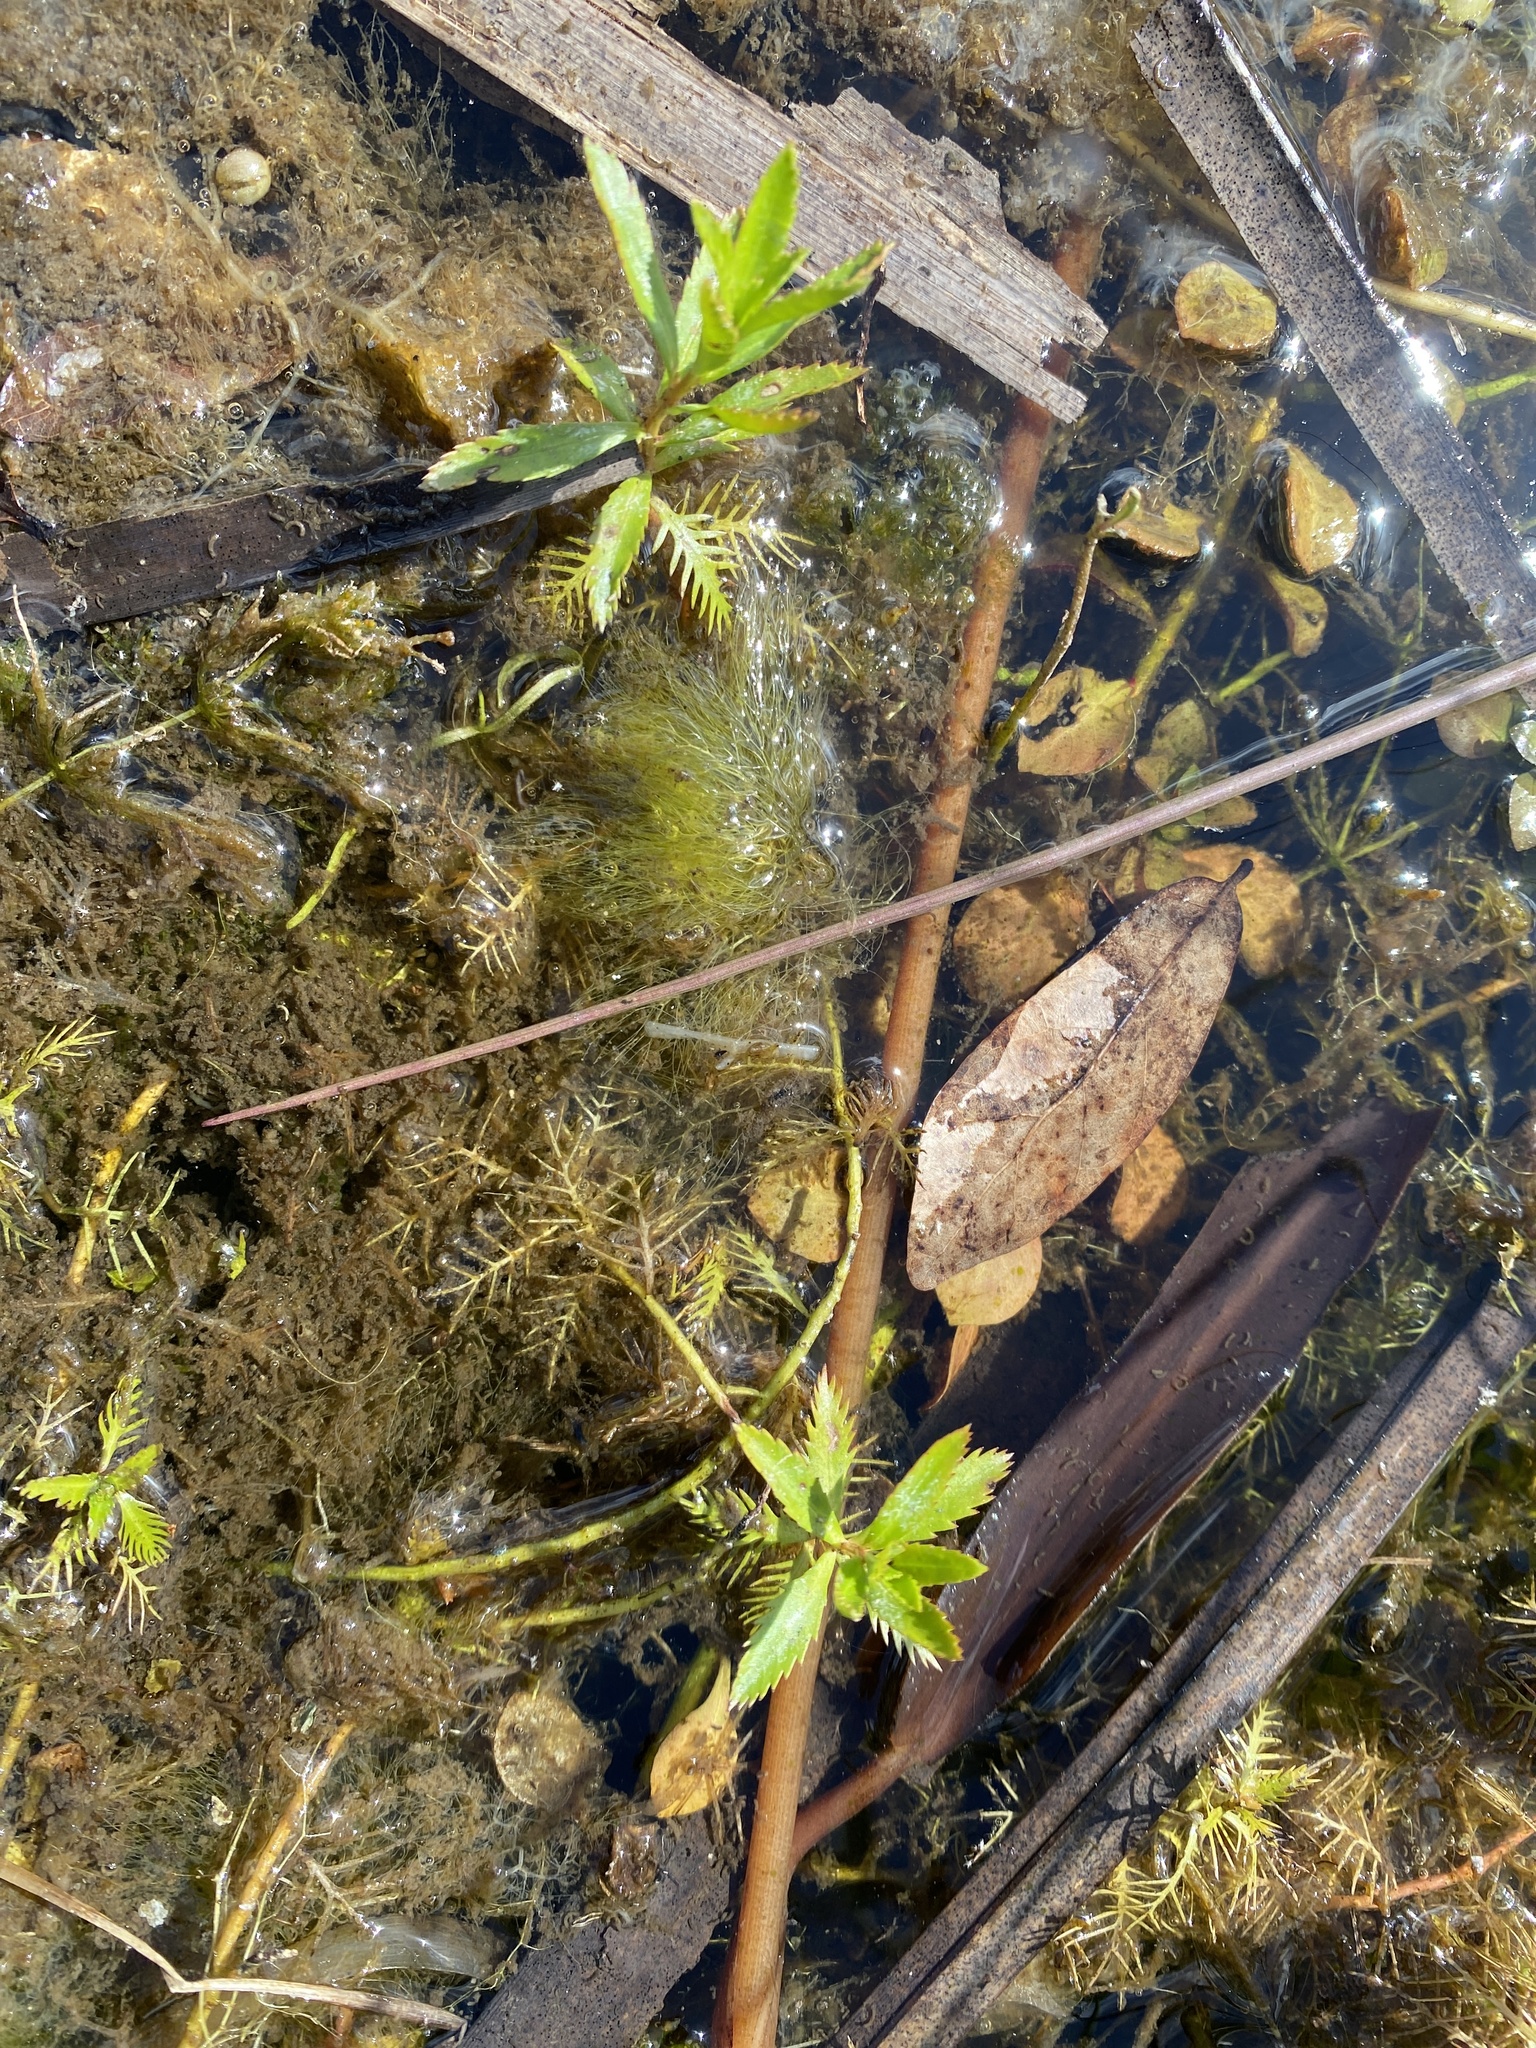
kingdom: Plantae
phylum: Tracheophyta
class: Magnoliopsida
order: Saxifragales
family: Haloragaceae
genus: Proserpinaca
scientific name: Proserpinaca palustris
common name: Marsh mermaidweed
